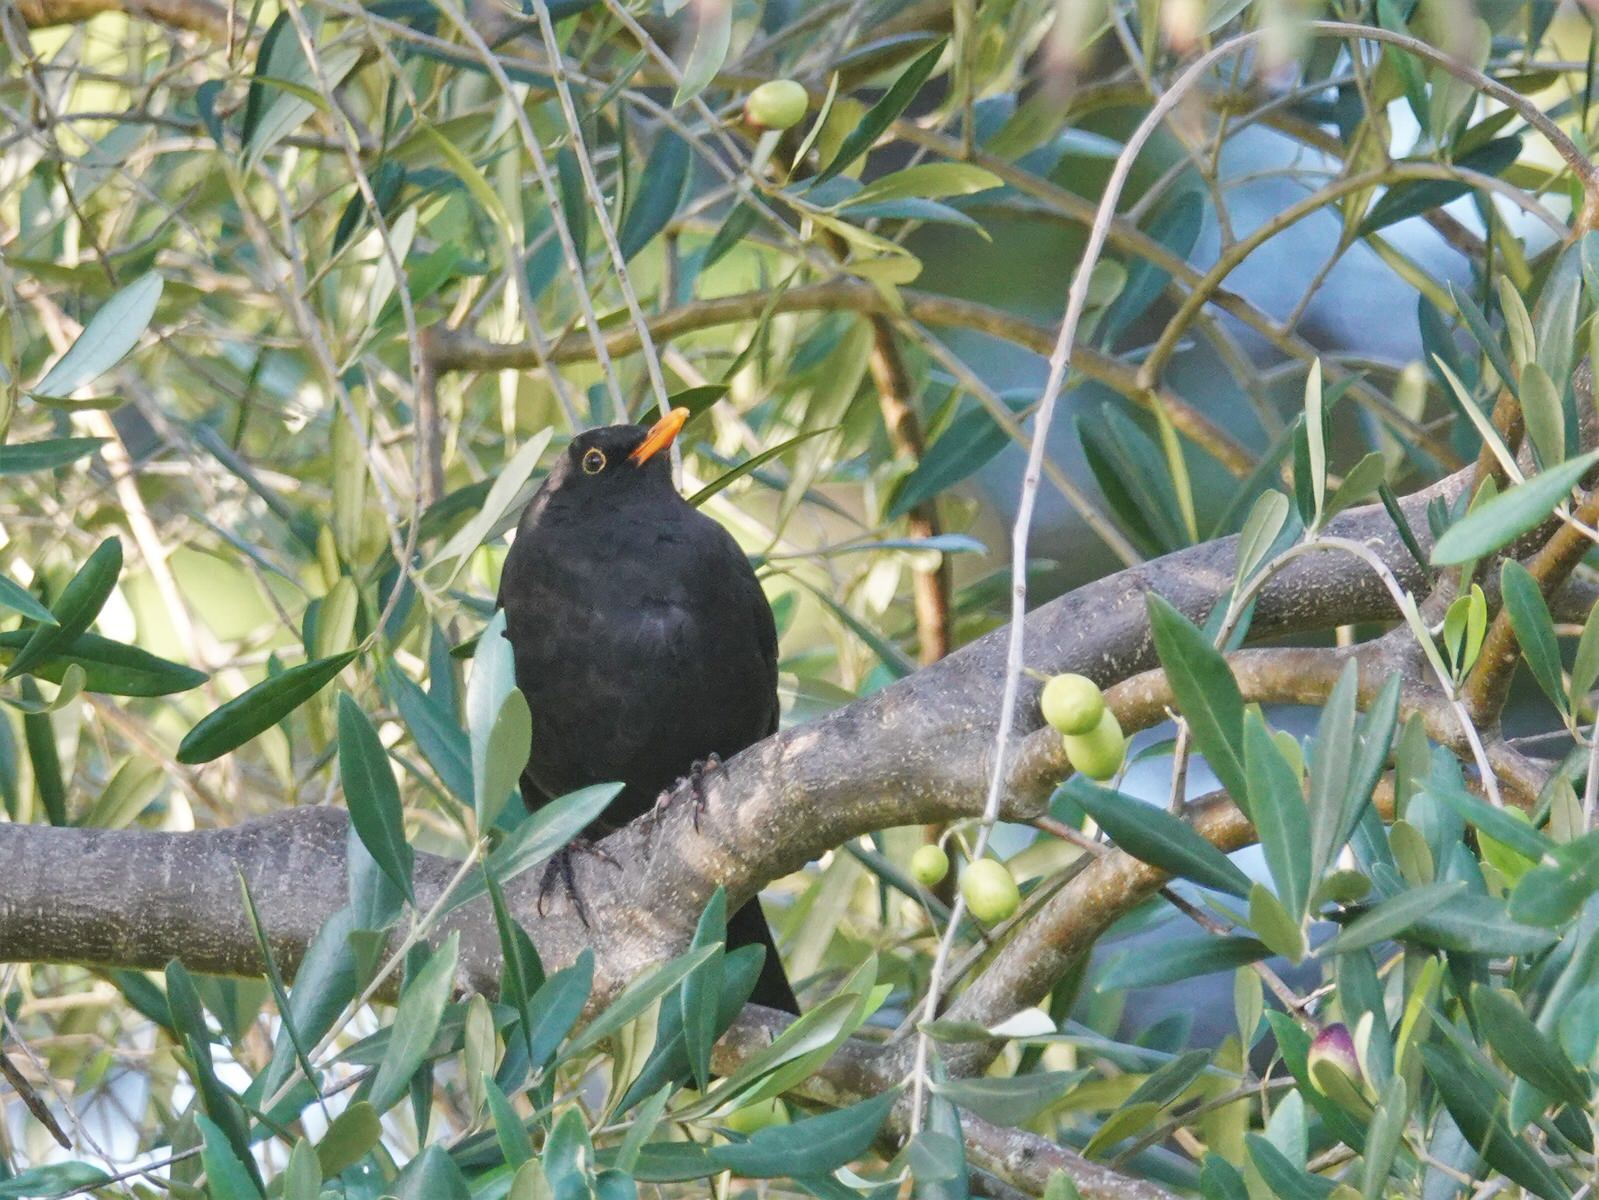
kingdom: Animalia
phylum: Chordata
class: Aves
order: Passeriformes
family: Turdidae
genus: Turdus
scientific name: Turdus merula
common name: Common blackbird
